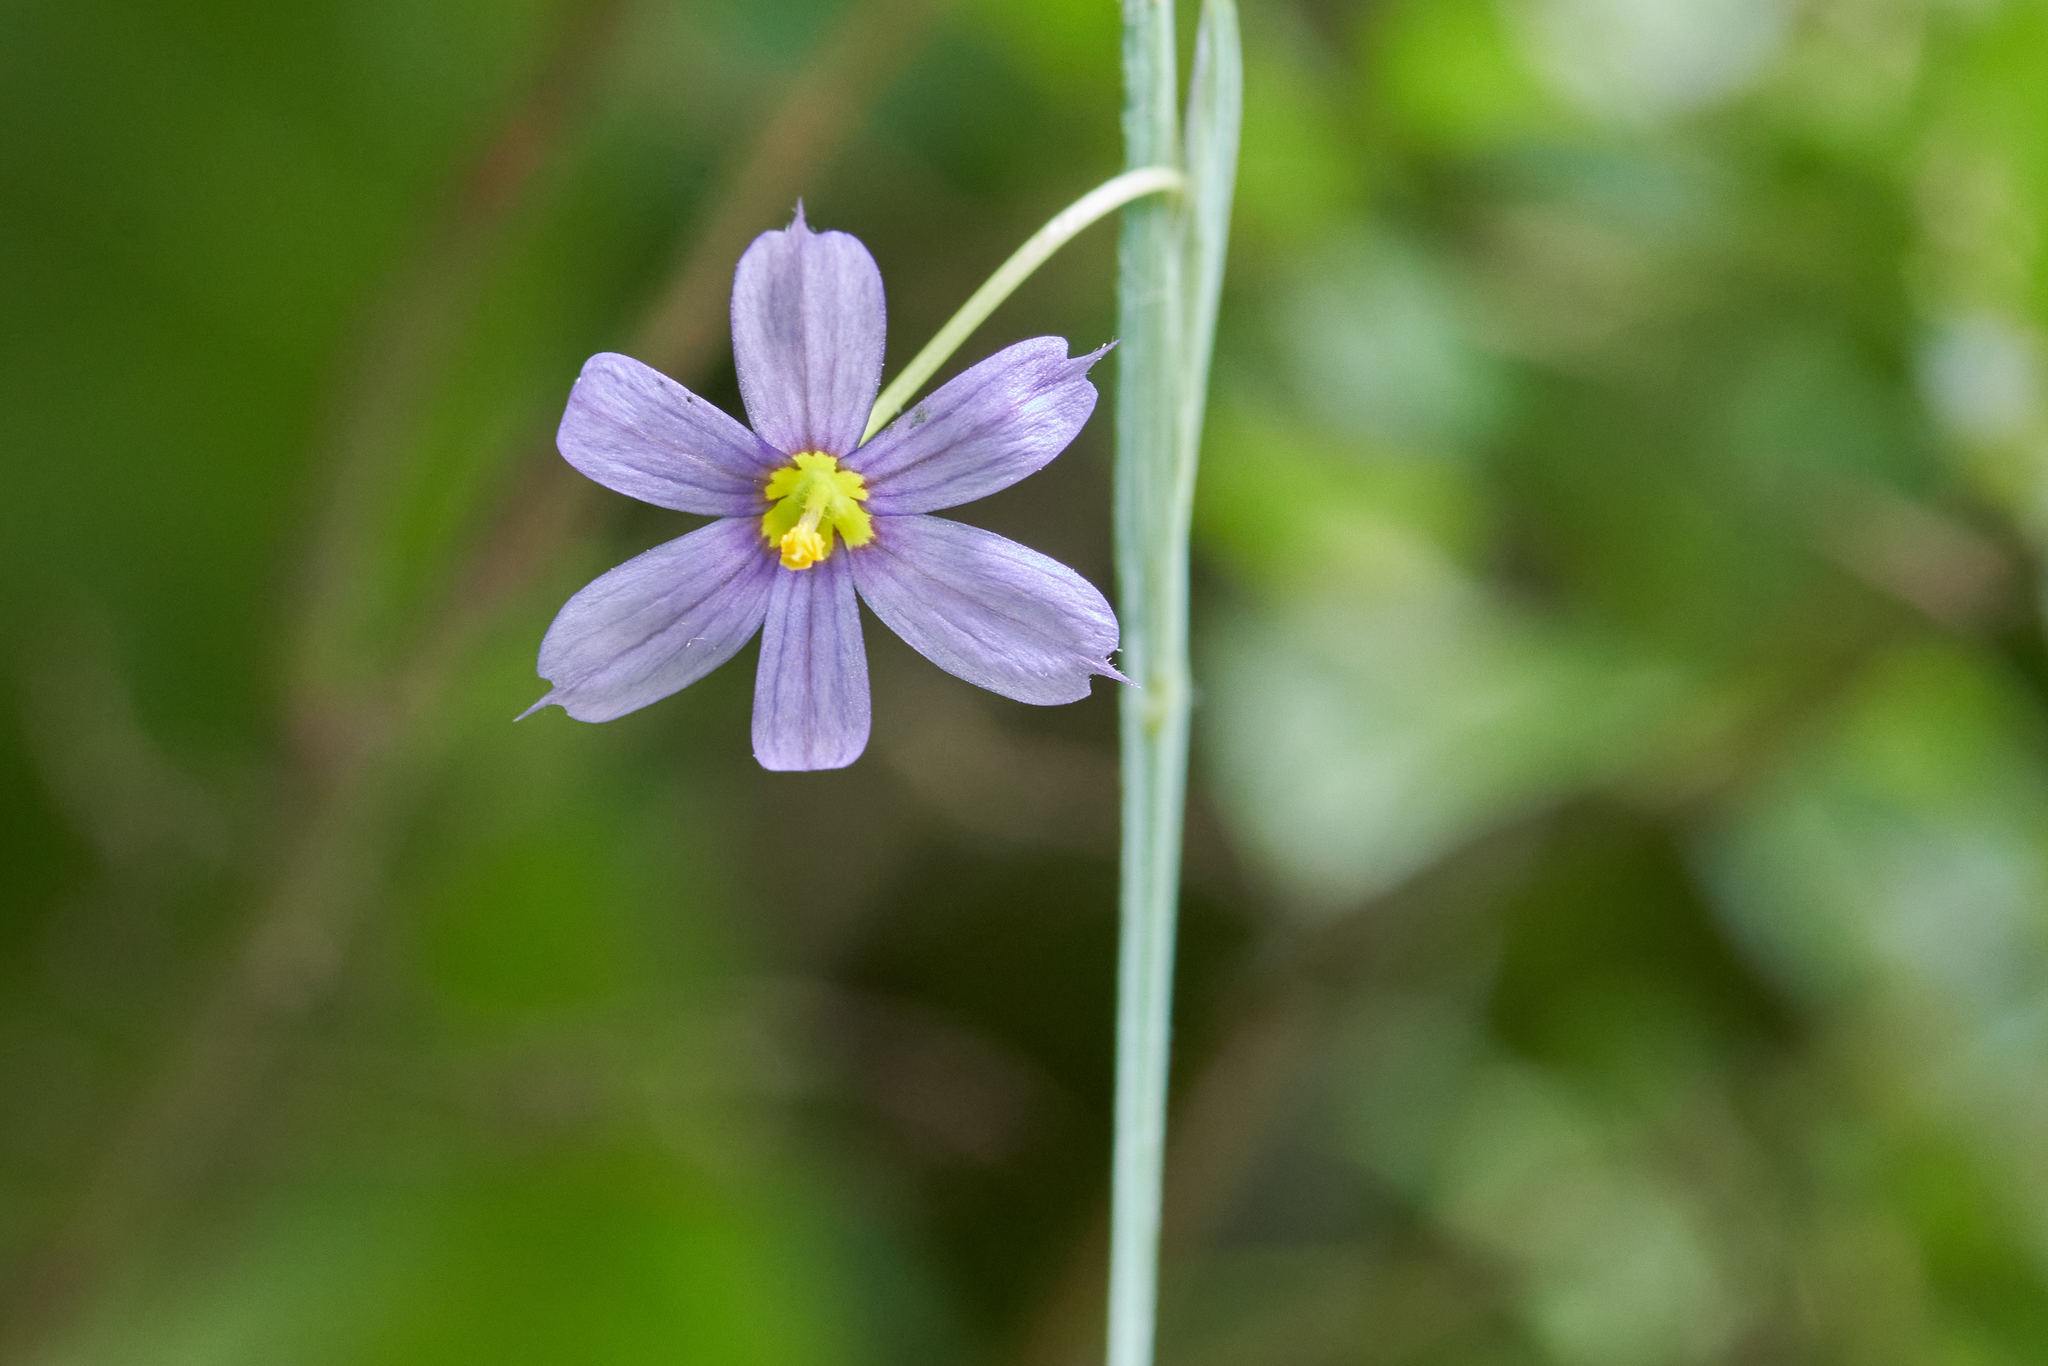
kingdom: Plantae
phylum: Tracheophyta
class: Liliopsida
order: Asparagales
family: Iridaceae
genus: Sisyrinchium
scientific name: Sisyrinchium montanum
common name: American blue-eyed-grass
